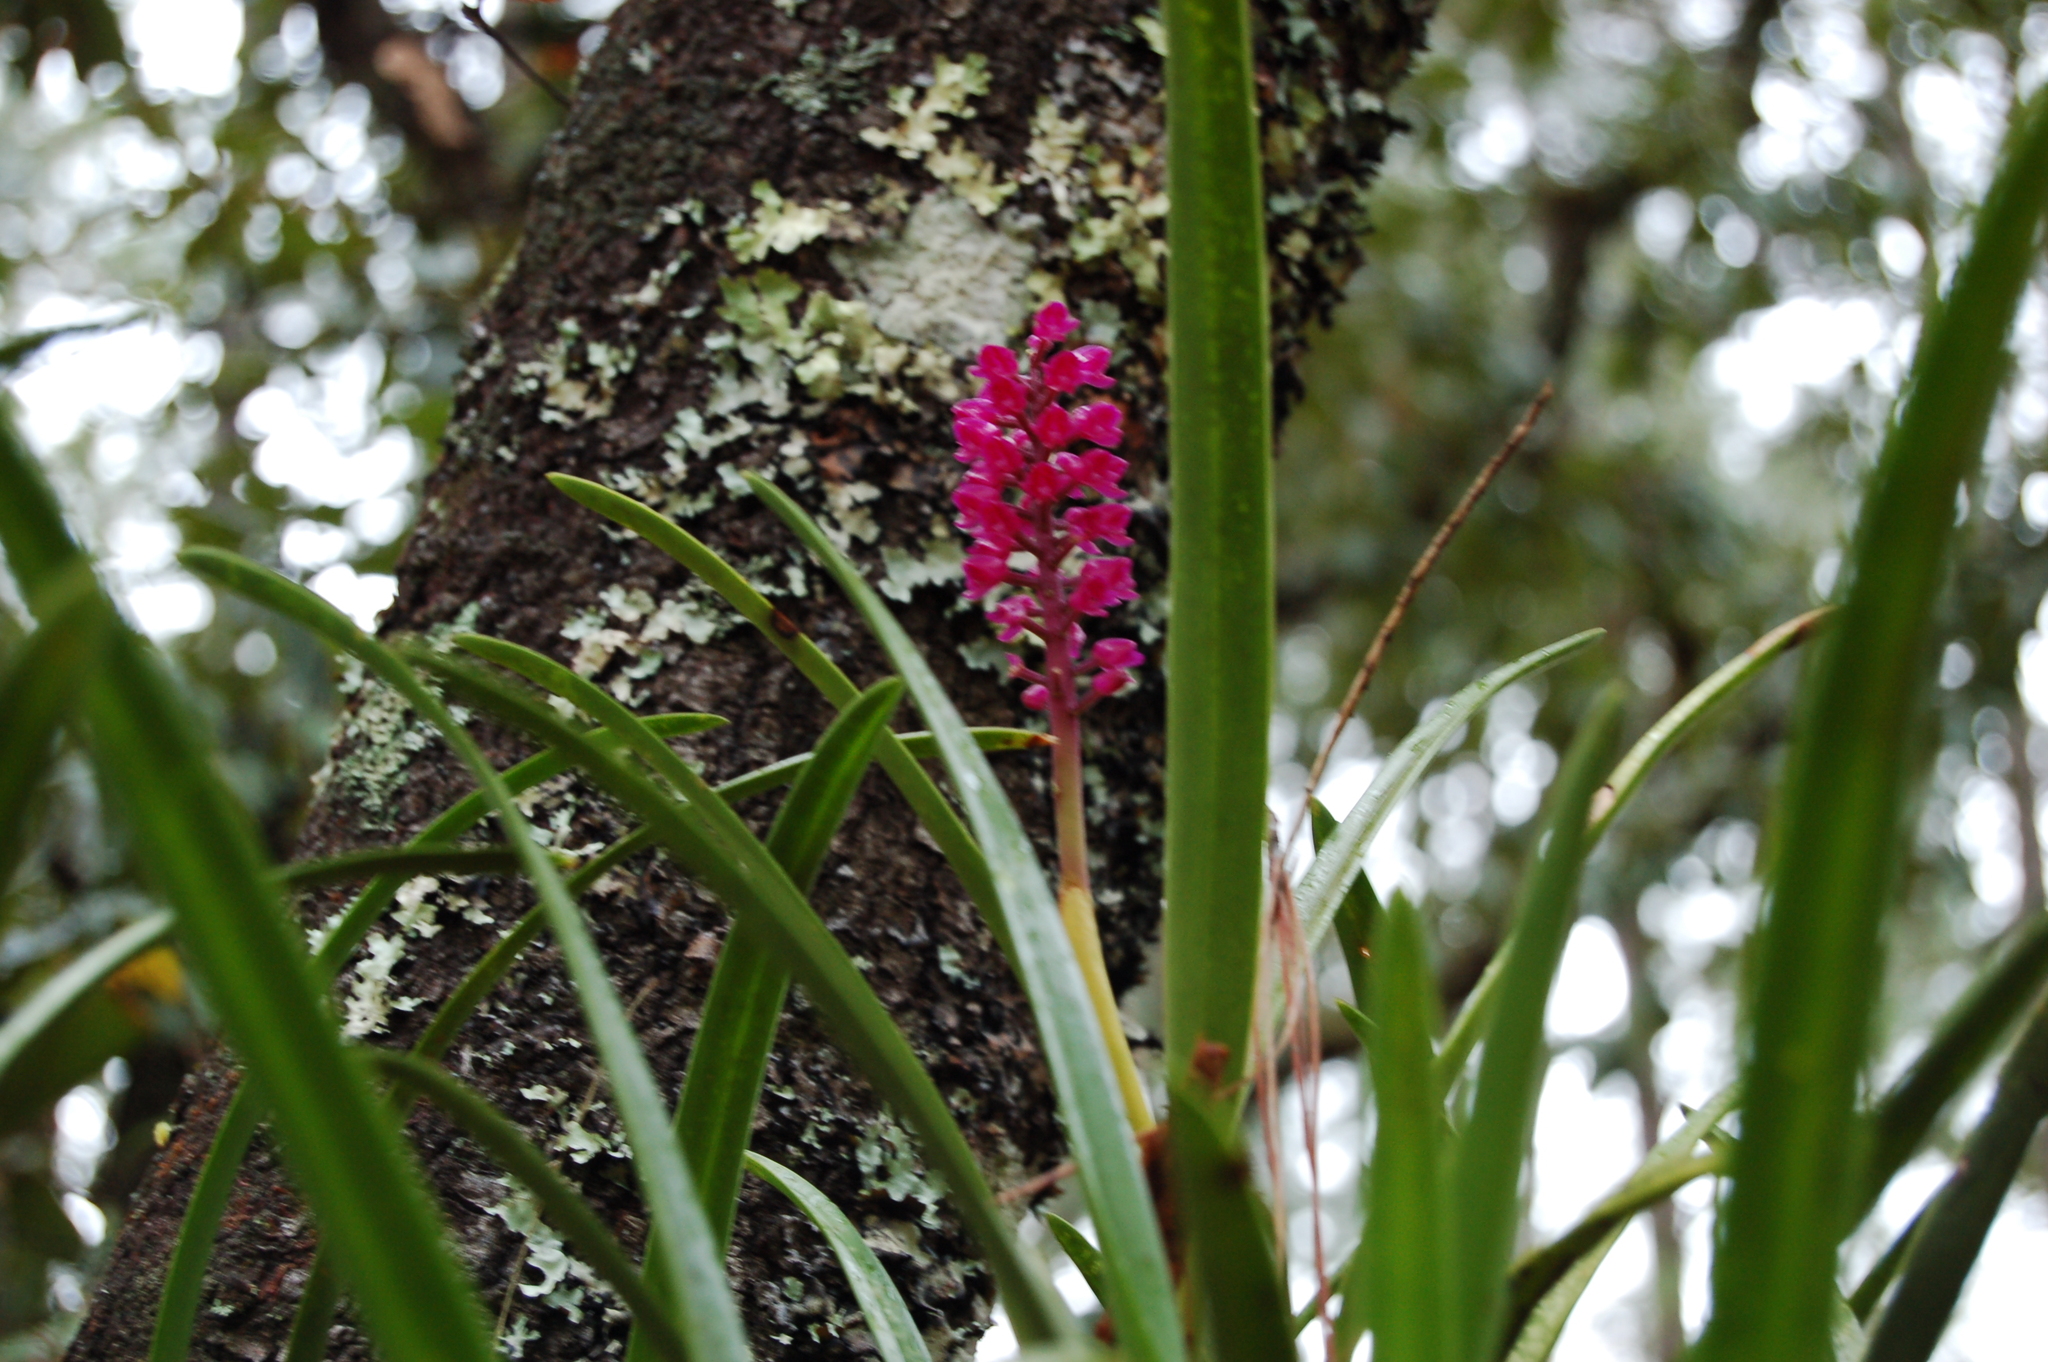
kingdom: Plantae
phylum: Tracheophyta
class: Liliopsida
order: Asparagales
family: Orchidaceae
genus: Arpophyllum
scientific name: Arpophyllum laxiflorum
